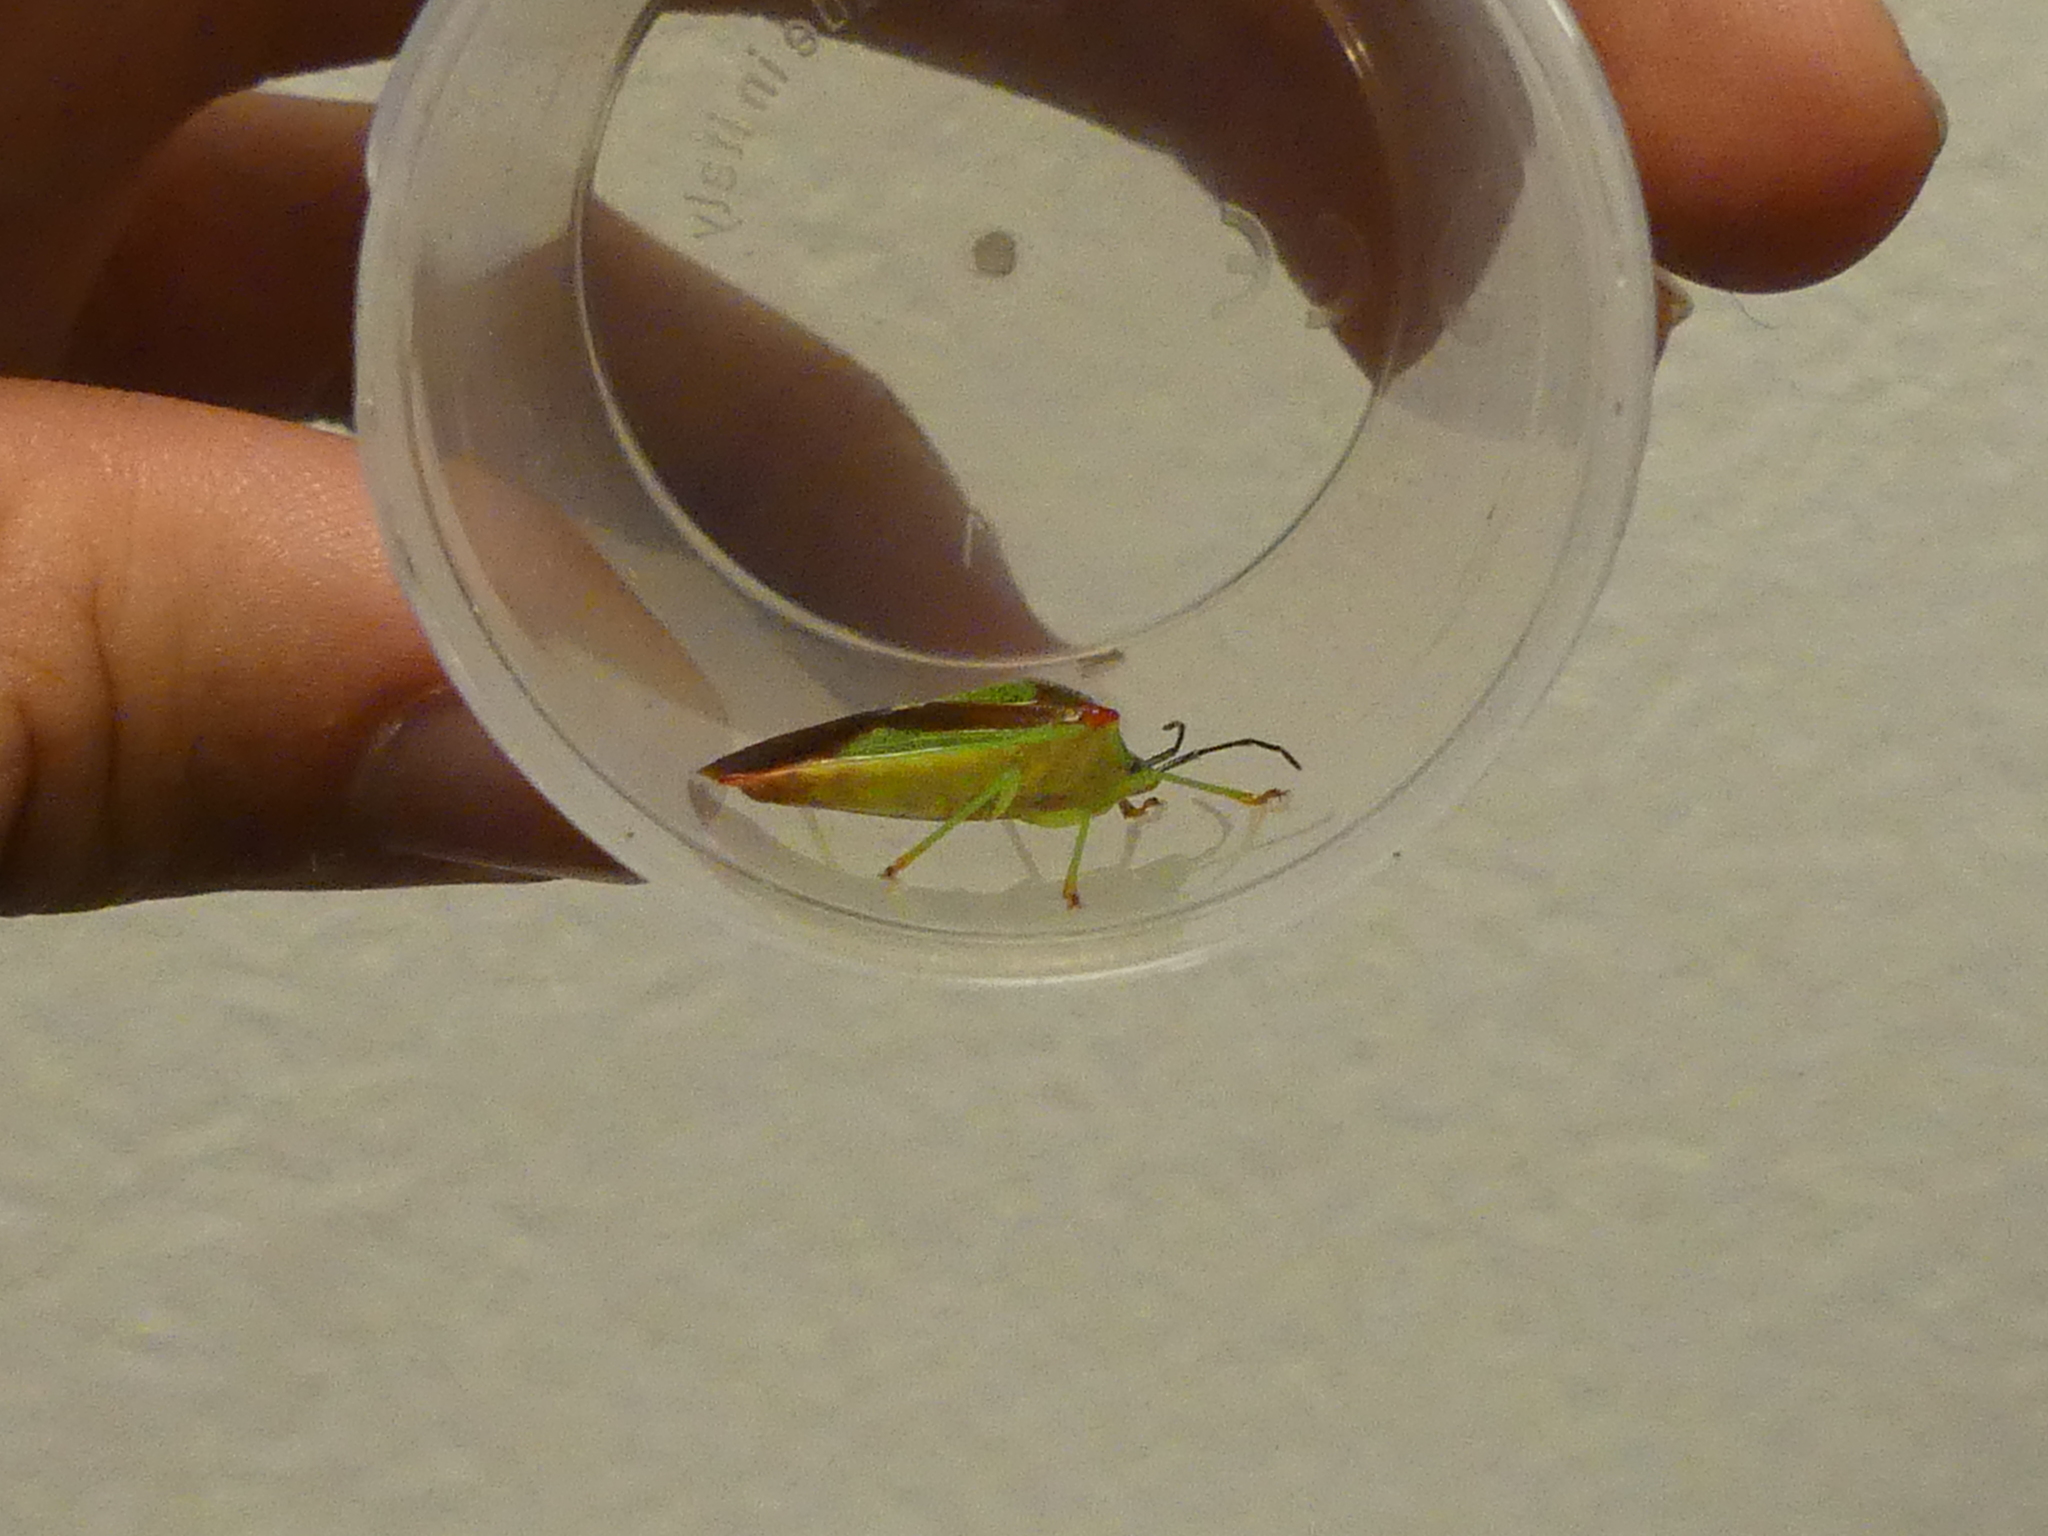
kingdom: Animalia
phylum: Arthropoda
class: Insecta
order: Hemiptera
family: Acanthosomatidae
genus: Acanthosoma
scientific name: Acanthosoma haemorrhoidale
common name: Hawthorn shieldbug
